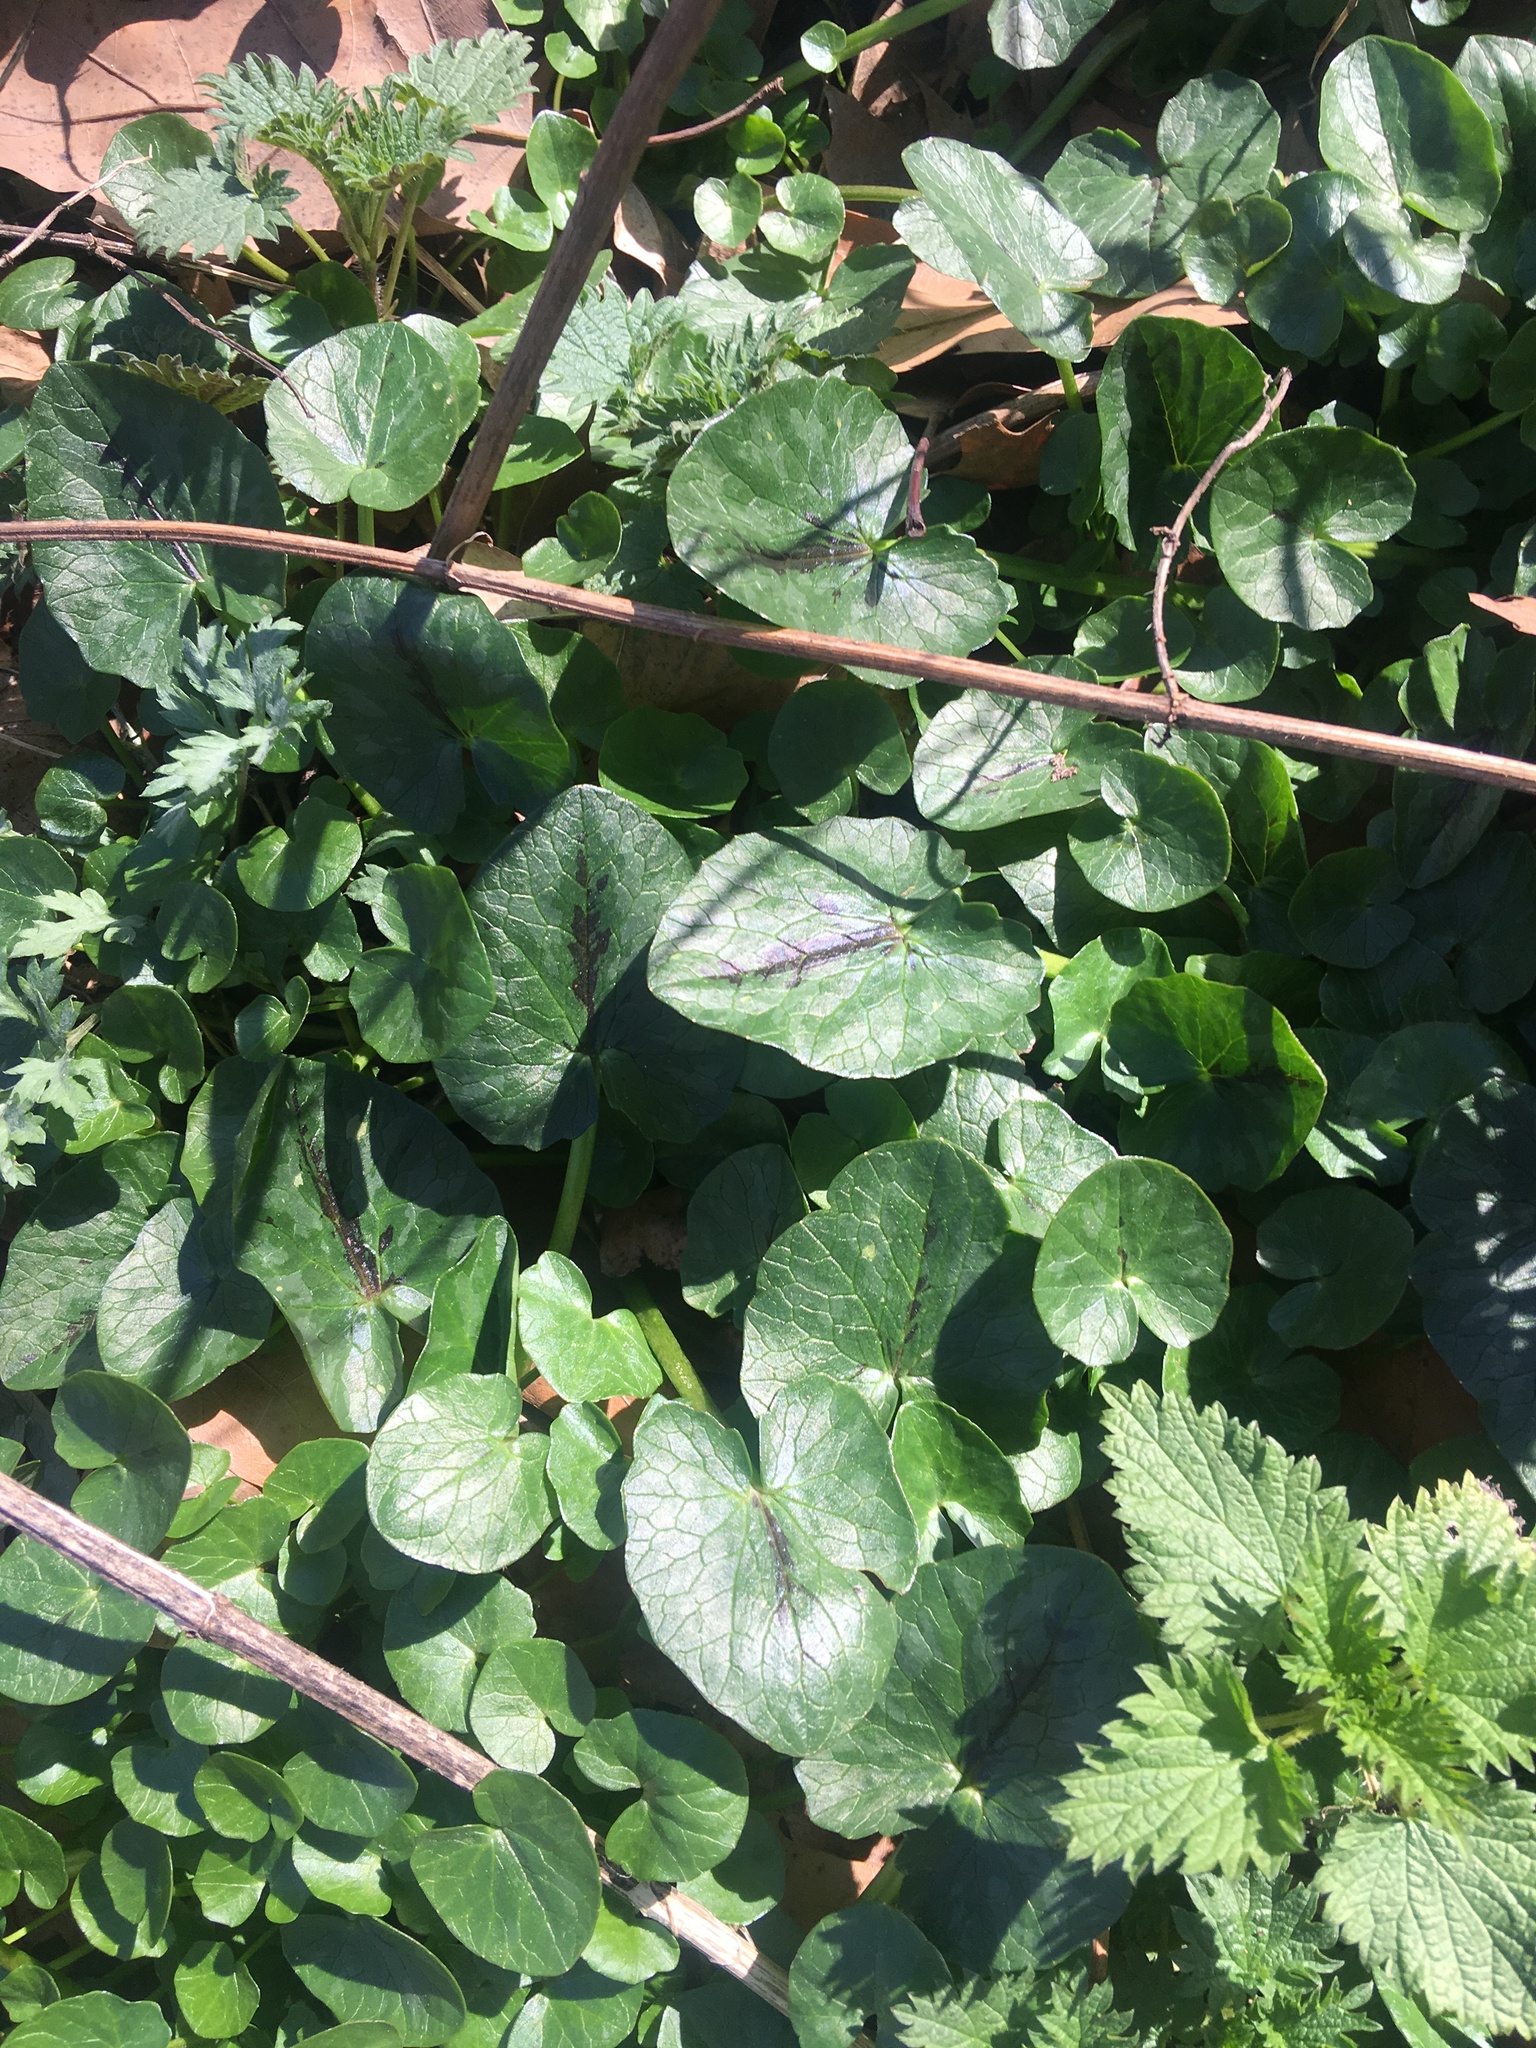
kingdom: Plantae
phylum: Tracheophyta
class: Magnoliopsida
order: Ranunculales
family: Ranunculaceae
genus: Ficaria
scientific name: Ficaria verna
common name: Lesser celandine
